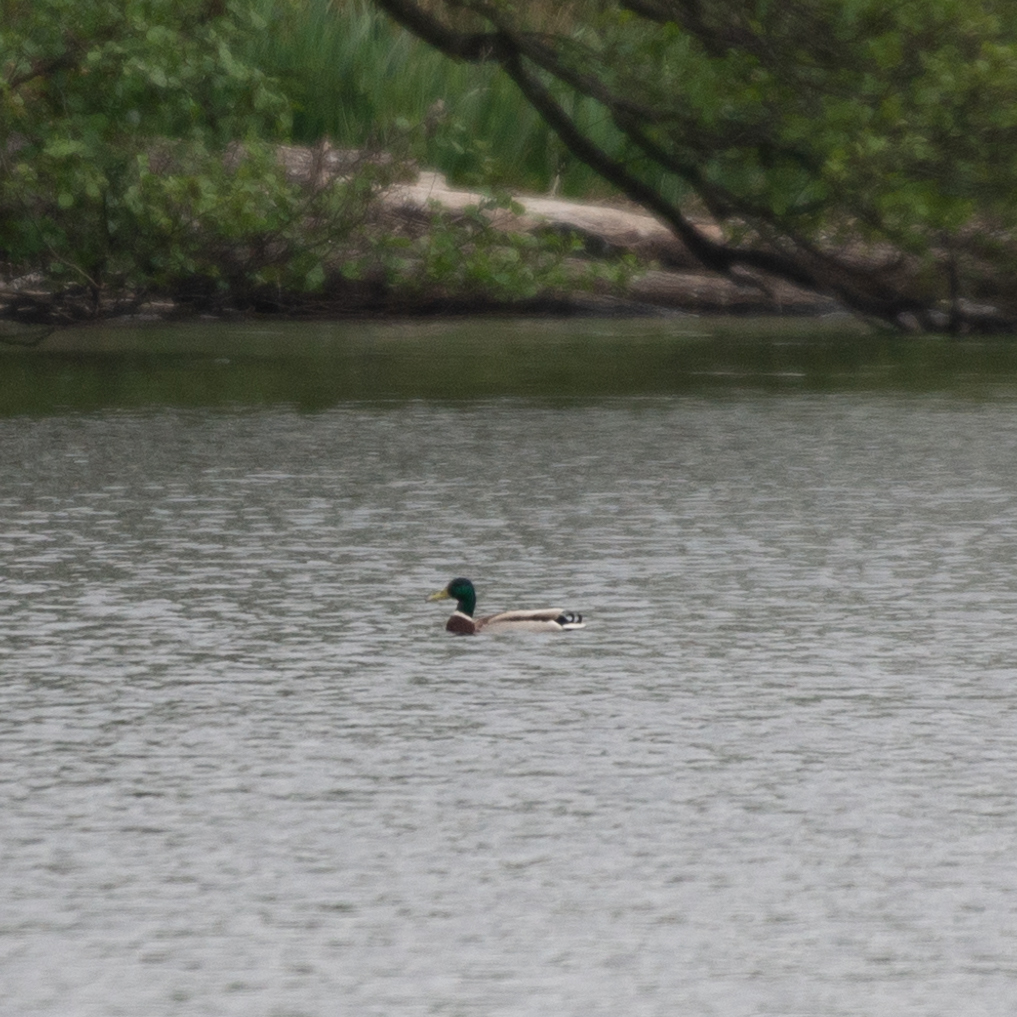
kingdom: Animalia
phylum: Chordata
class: Aves
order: Anseriformes
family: Anatidae
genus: Anas
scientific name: Anas platyrhynchos
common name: Mallard
